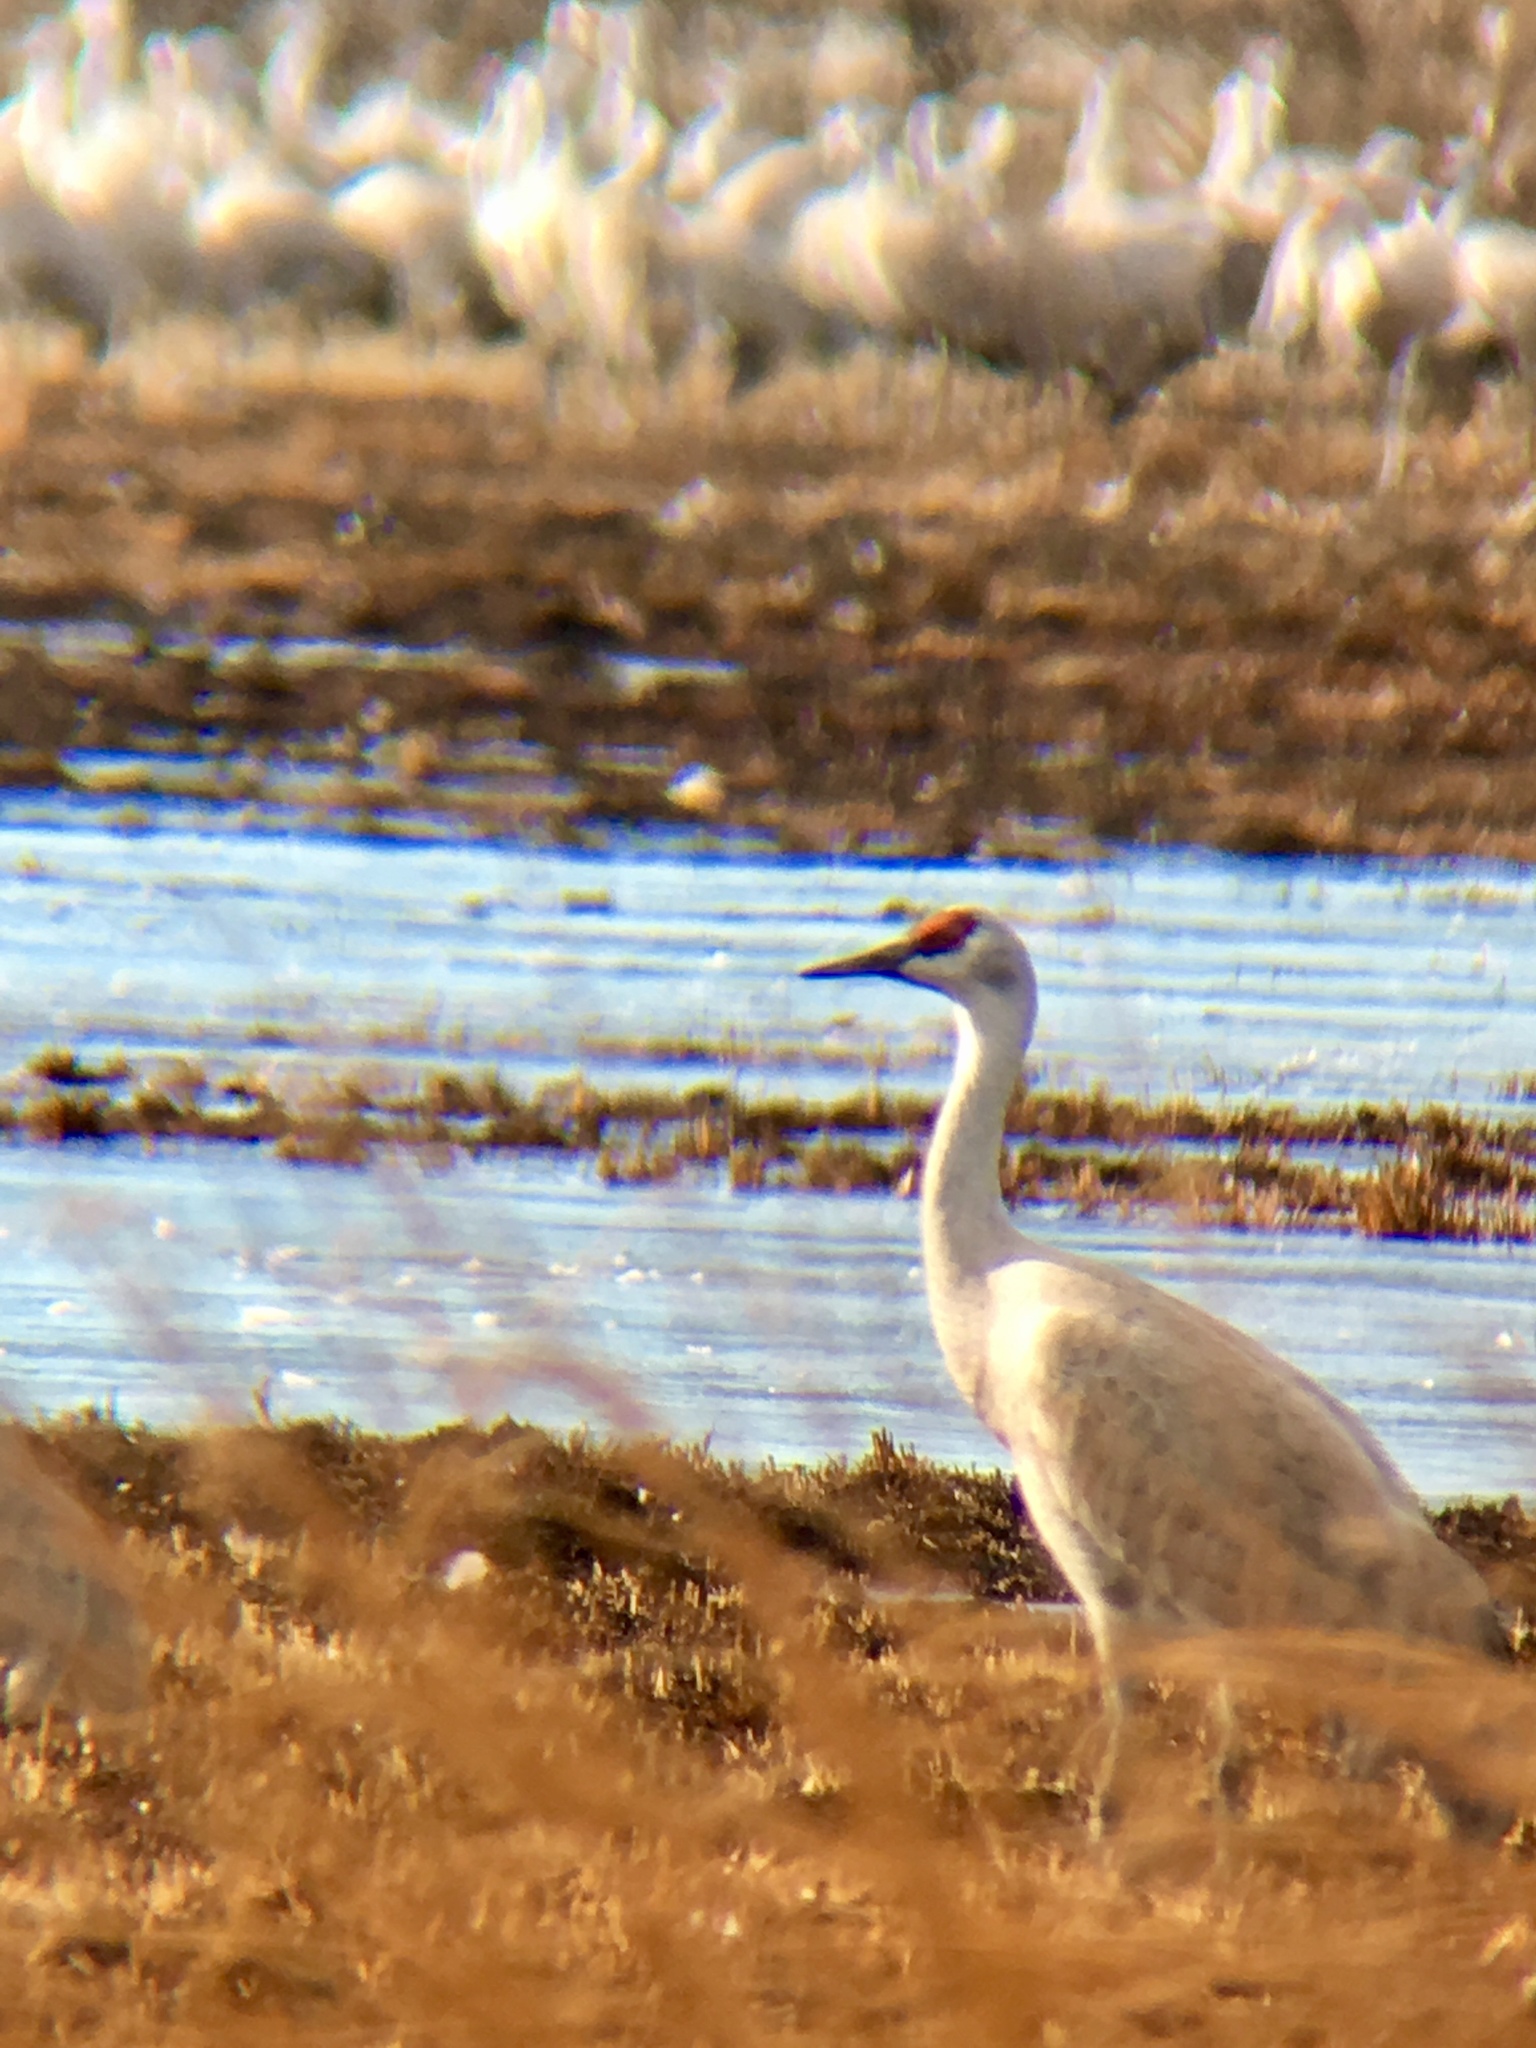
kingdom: Animalia
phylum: Chordata
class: Aves
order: Gruiformes
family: Gruidae
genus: Grus
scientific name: Grus canadensis
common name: Sandhill crane
